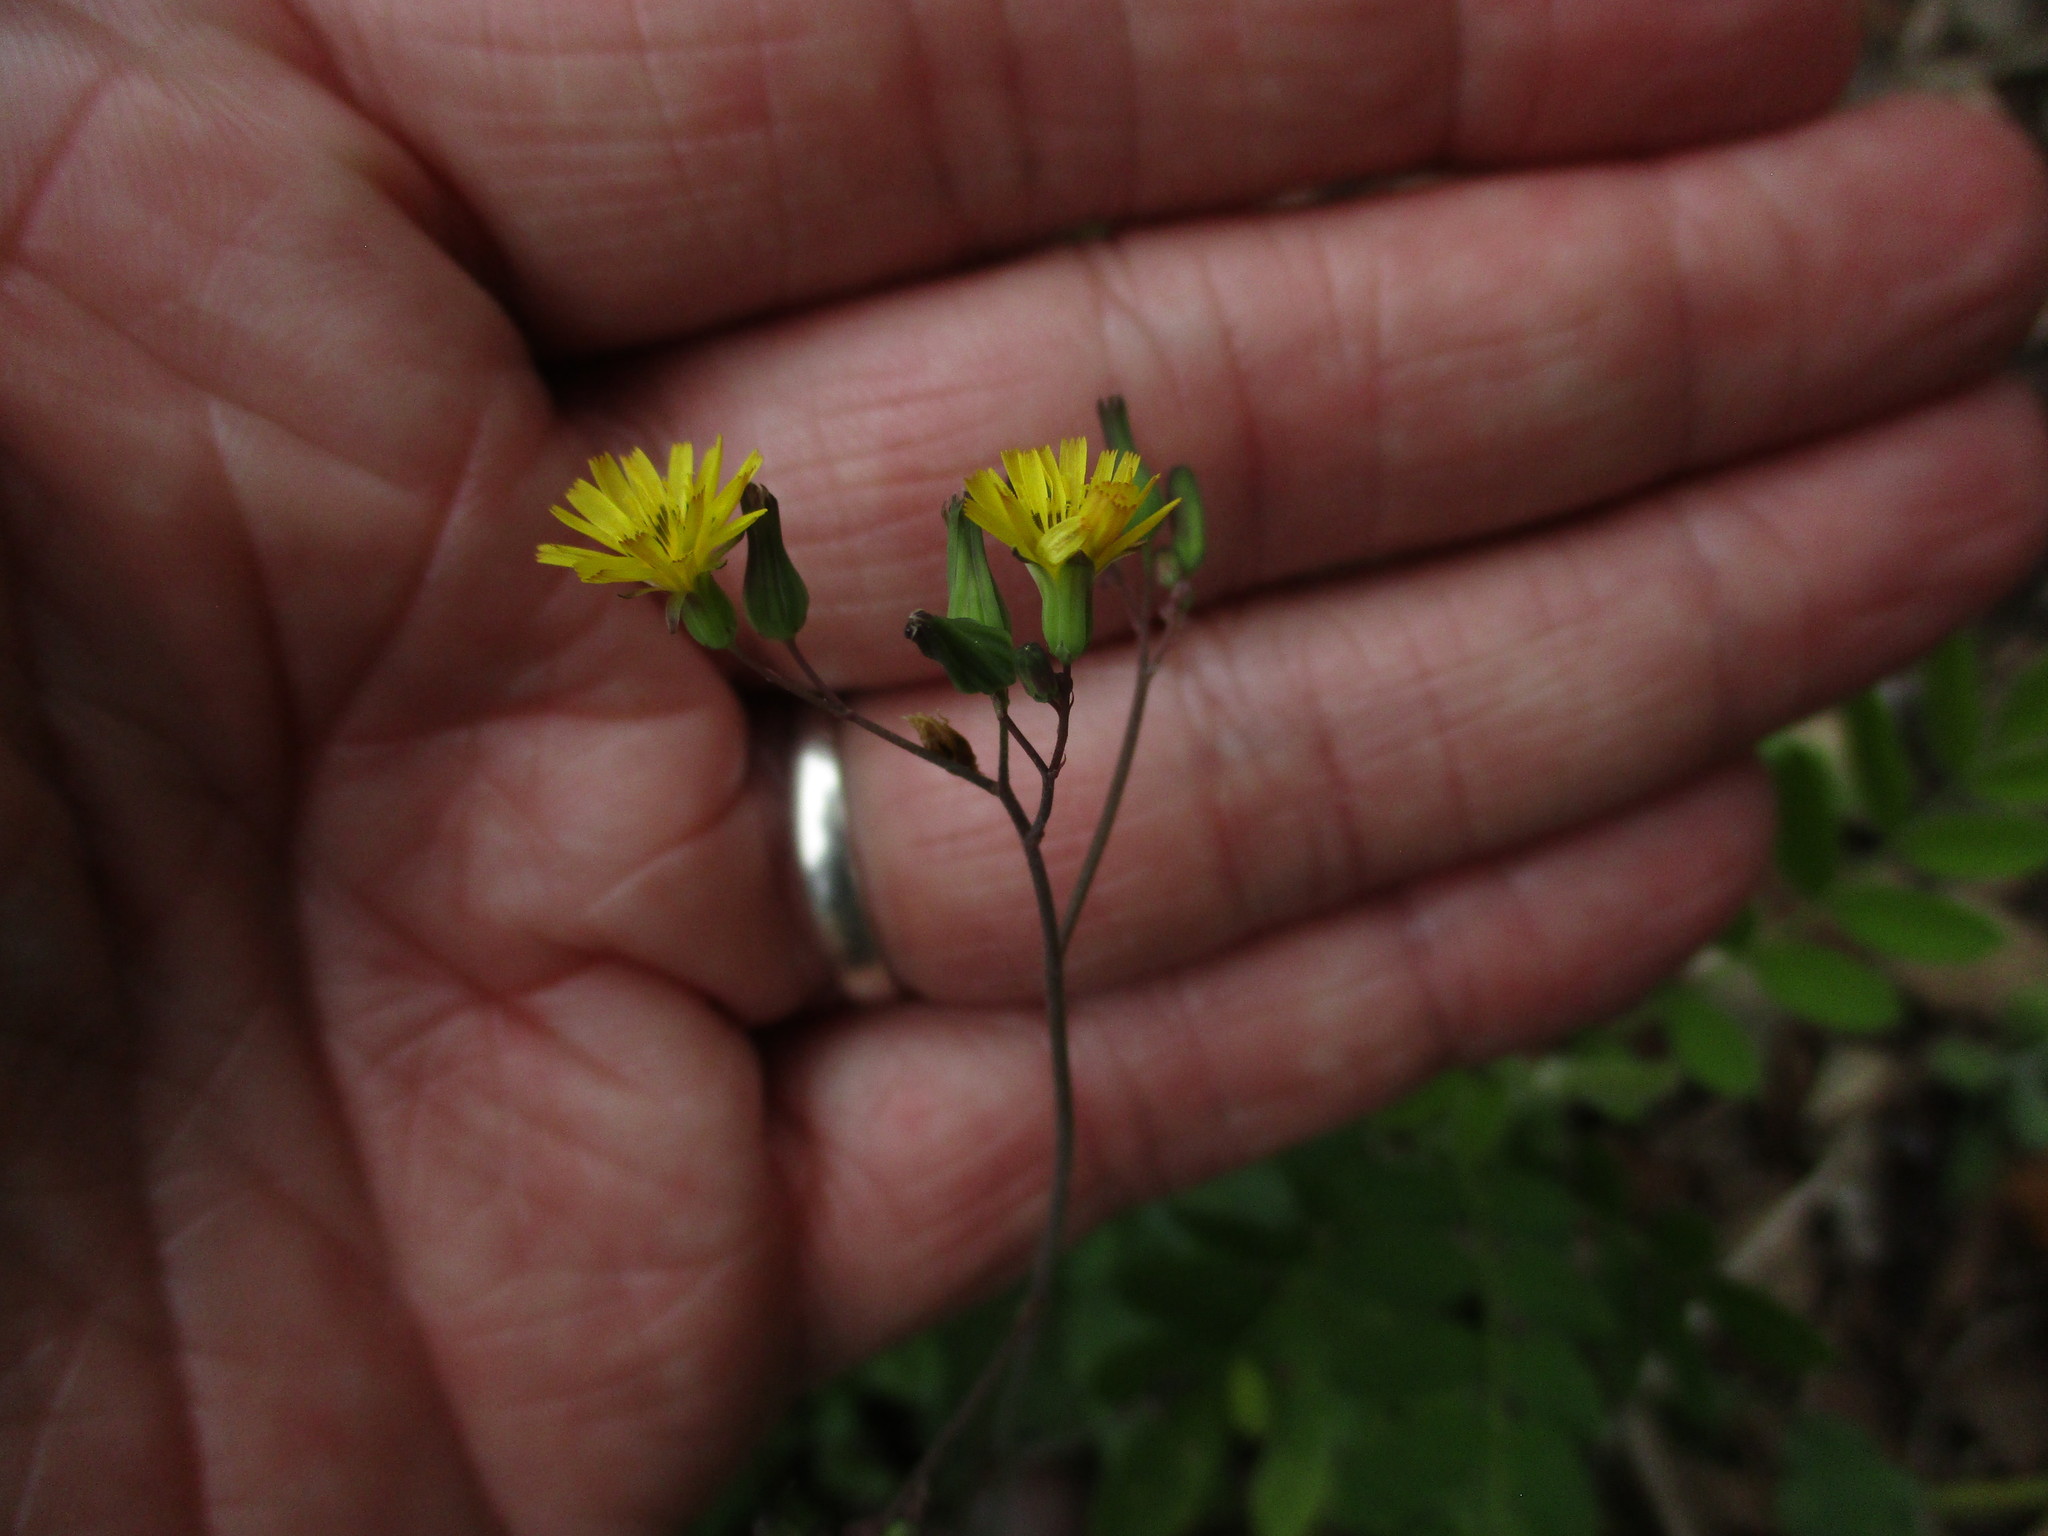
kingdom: Plantae
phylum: Tracheophyta
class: Magnoliopsida
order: Asterales
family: Asteraceae
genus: Youngia
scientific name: Youngia japonica
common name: Oriental false hawksbeard
